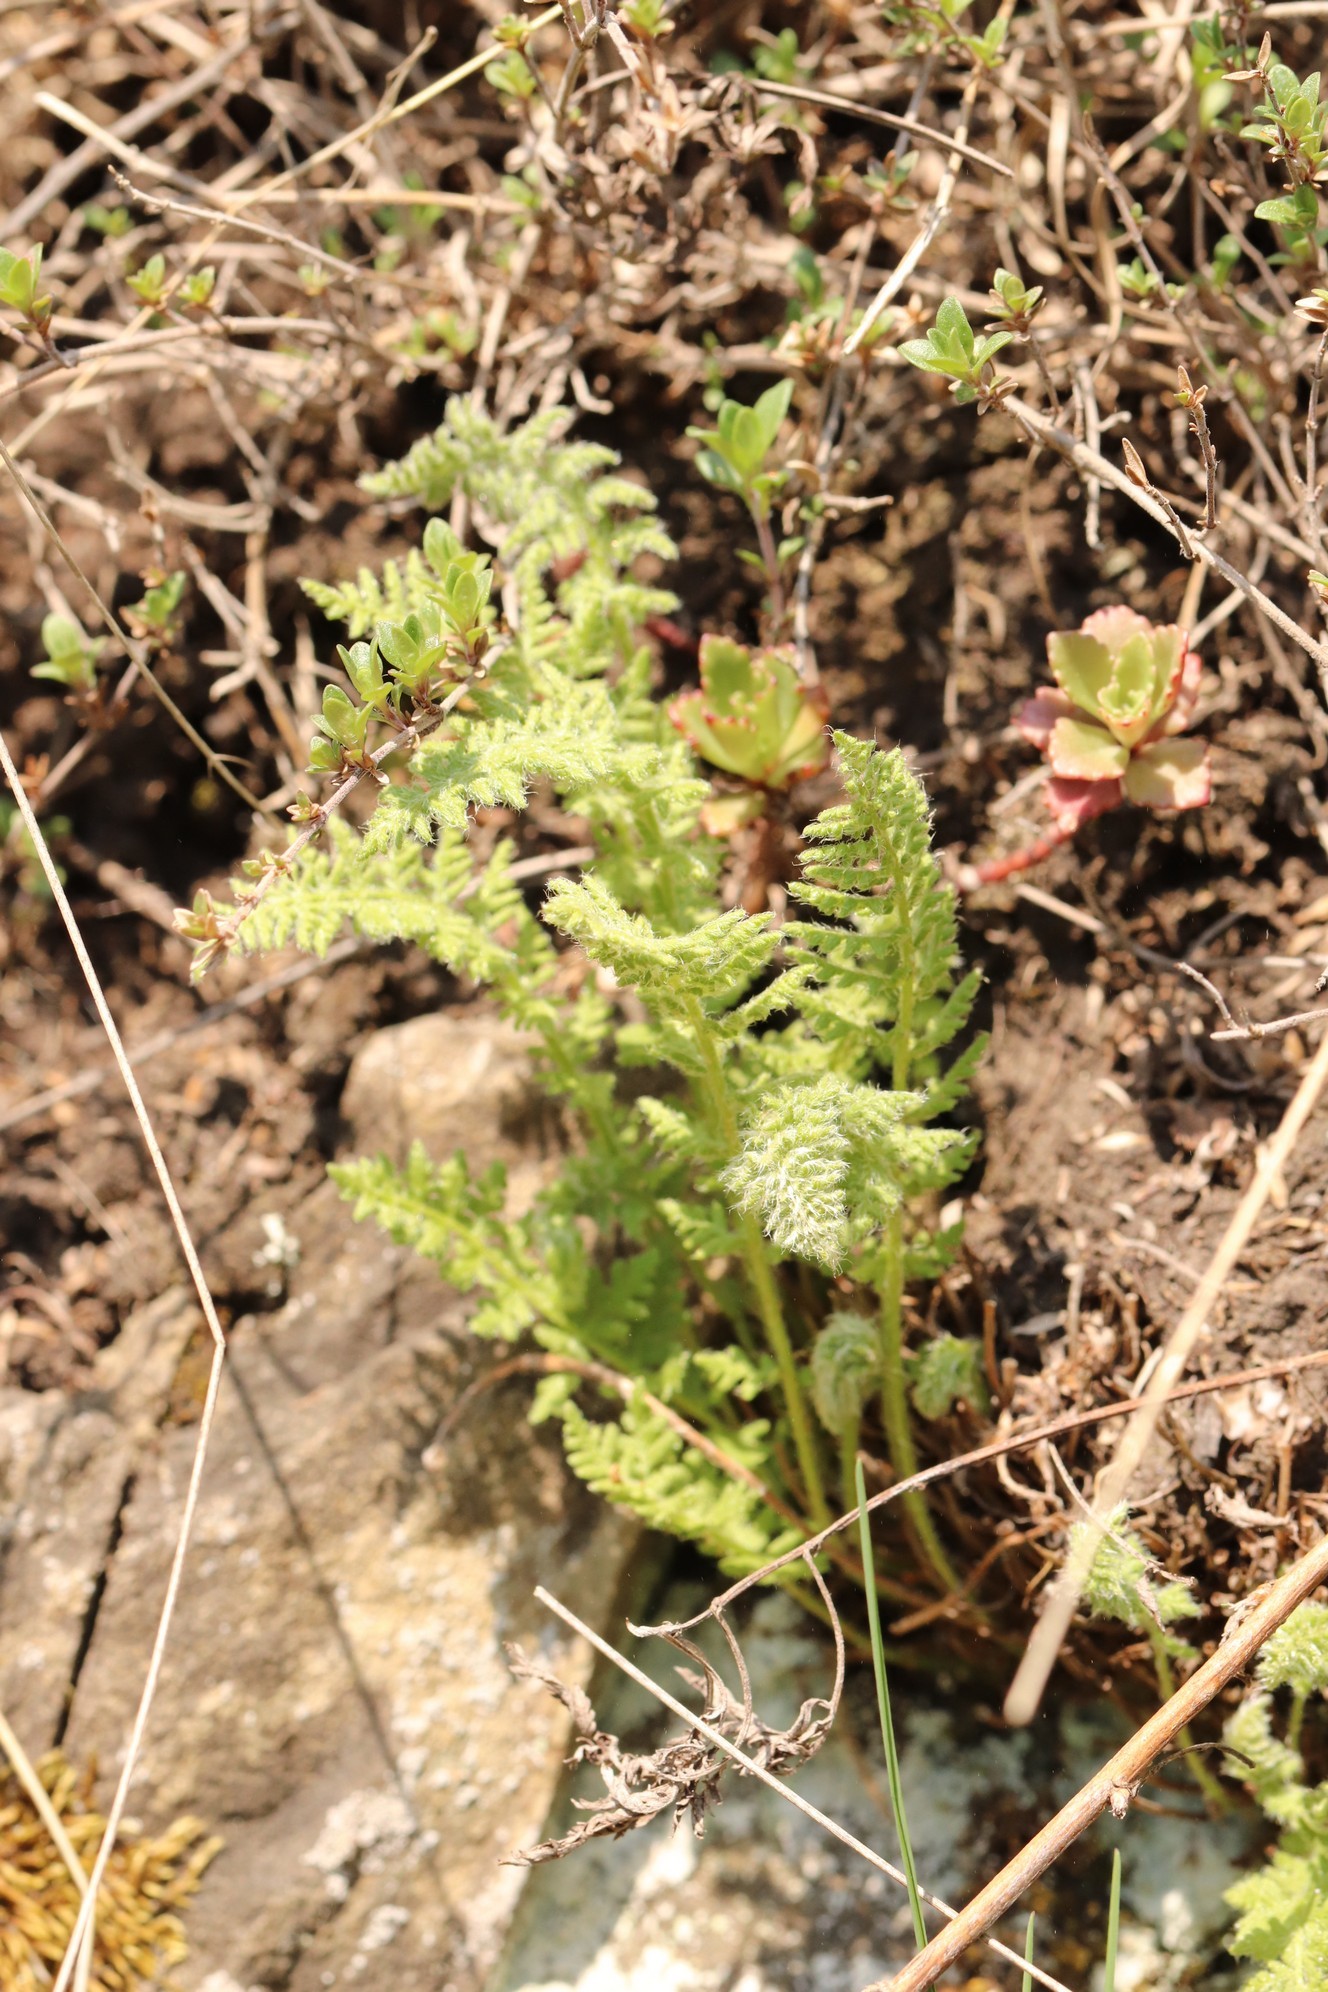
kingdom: Plantae
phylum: Tracheophyta
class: Polypodiopsida
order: Polypodiales
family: Woodsiaceae
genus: Woodsia
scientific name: Woodsia ilvensis
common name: Fragrant woodsia
